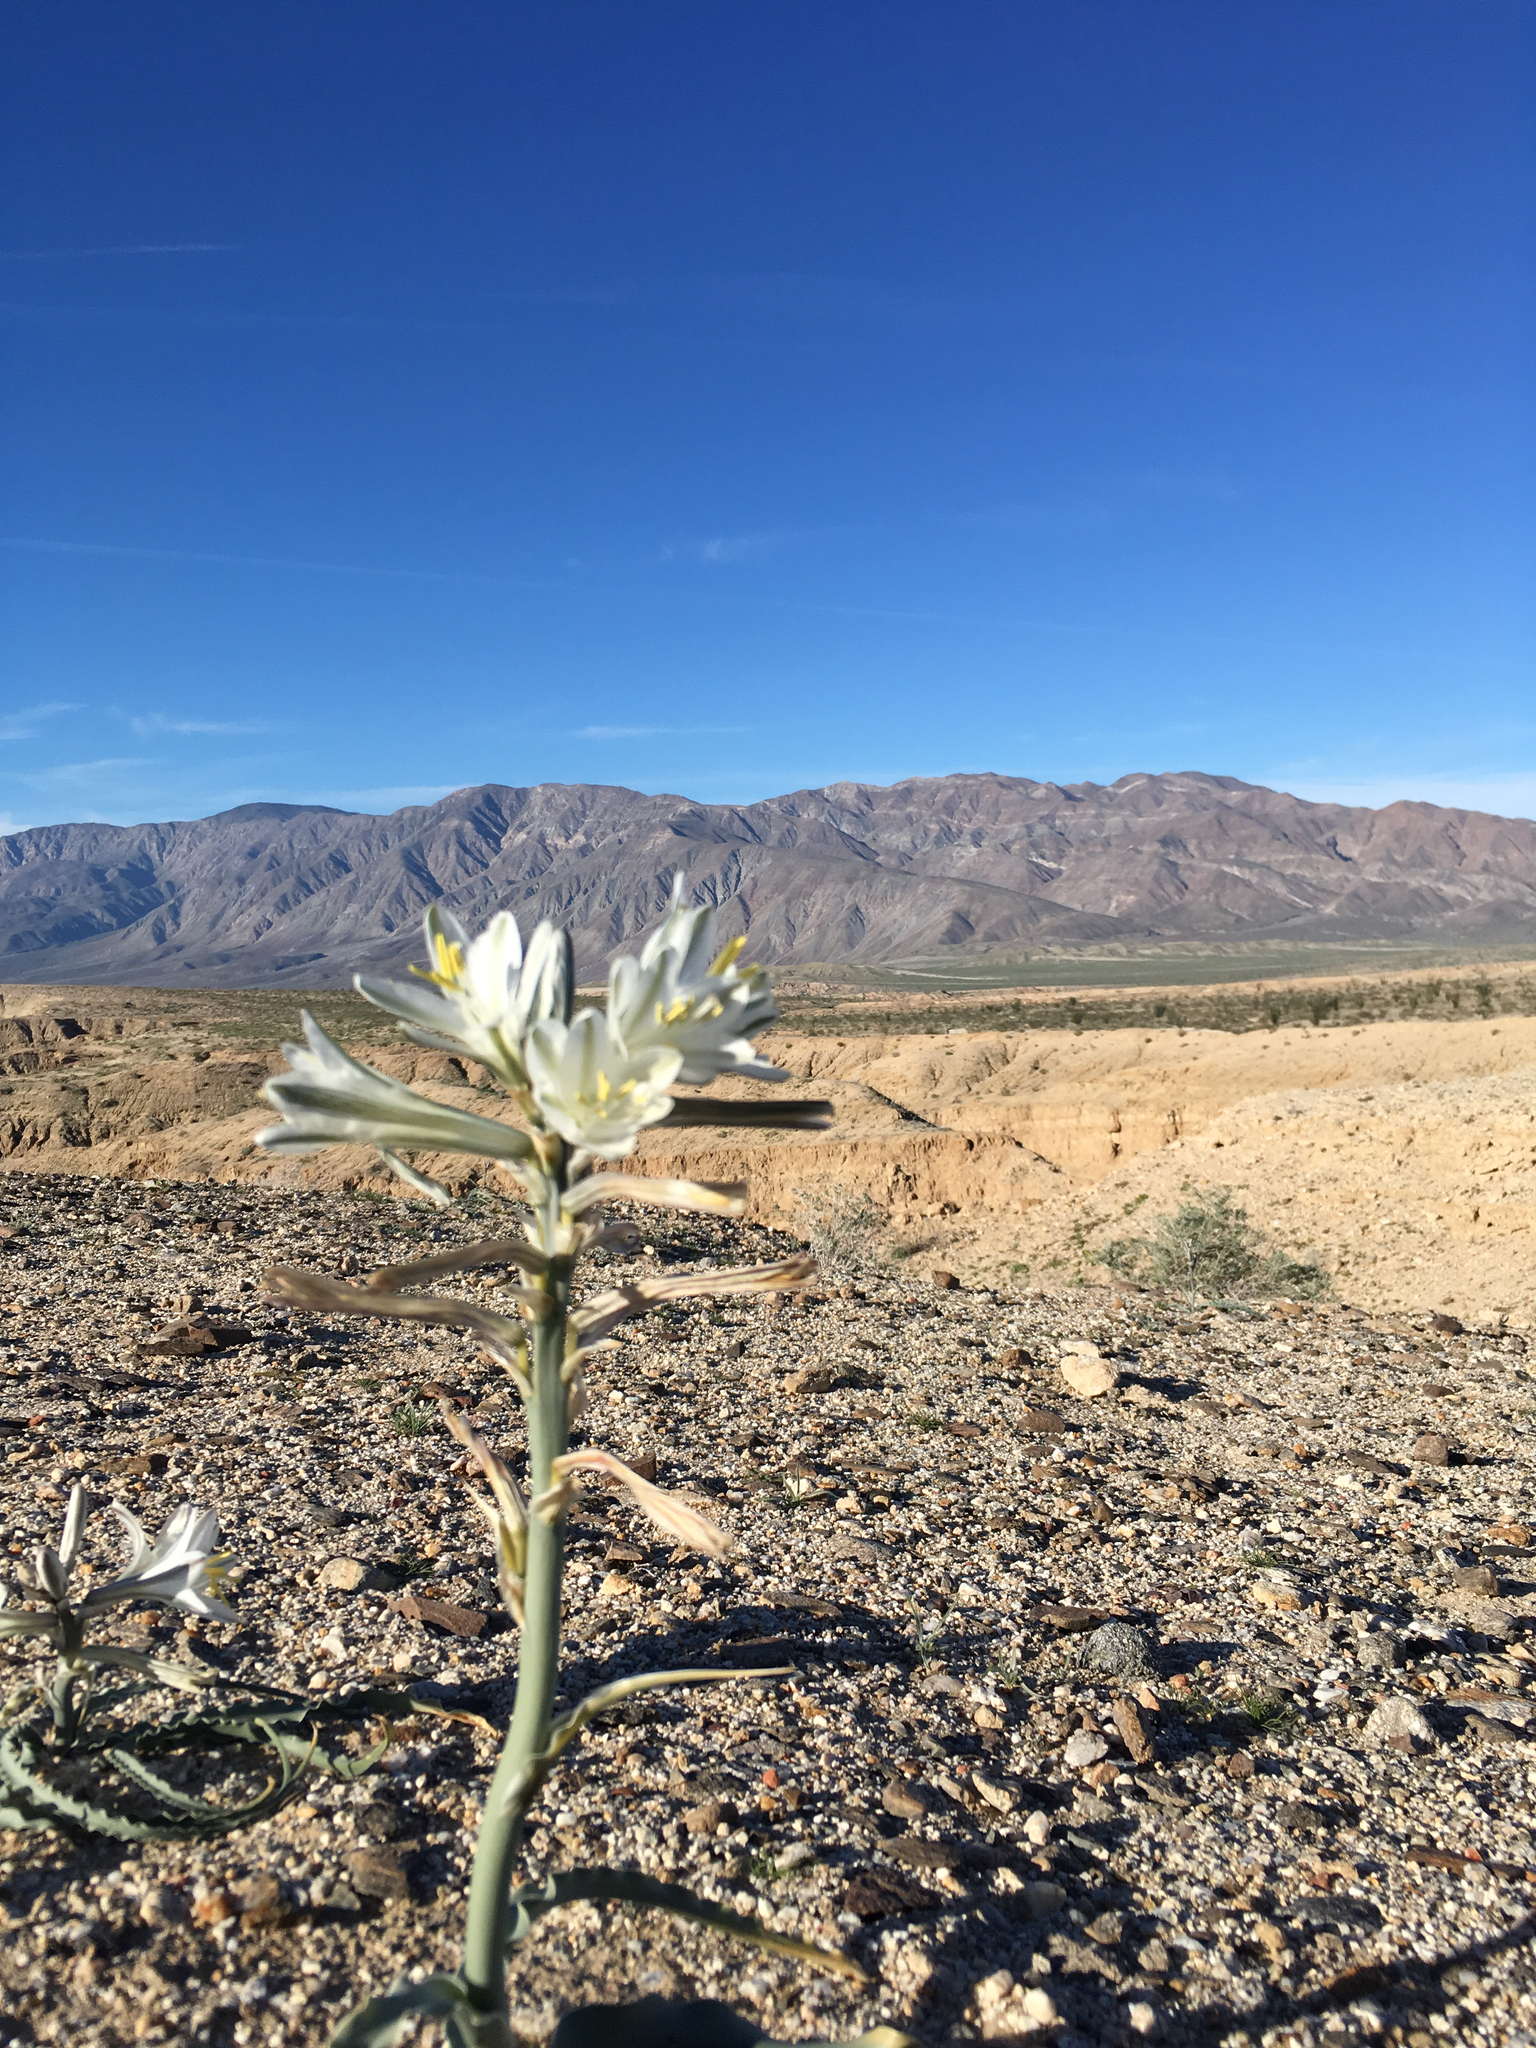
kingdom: Plantae
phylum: Tracheophyta
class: Liliopsida
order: Asparagales
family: Asparagaceae
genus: Hesperocallis
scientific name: Hesperocallis undulata
